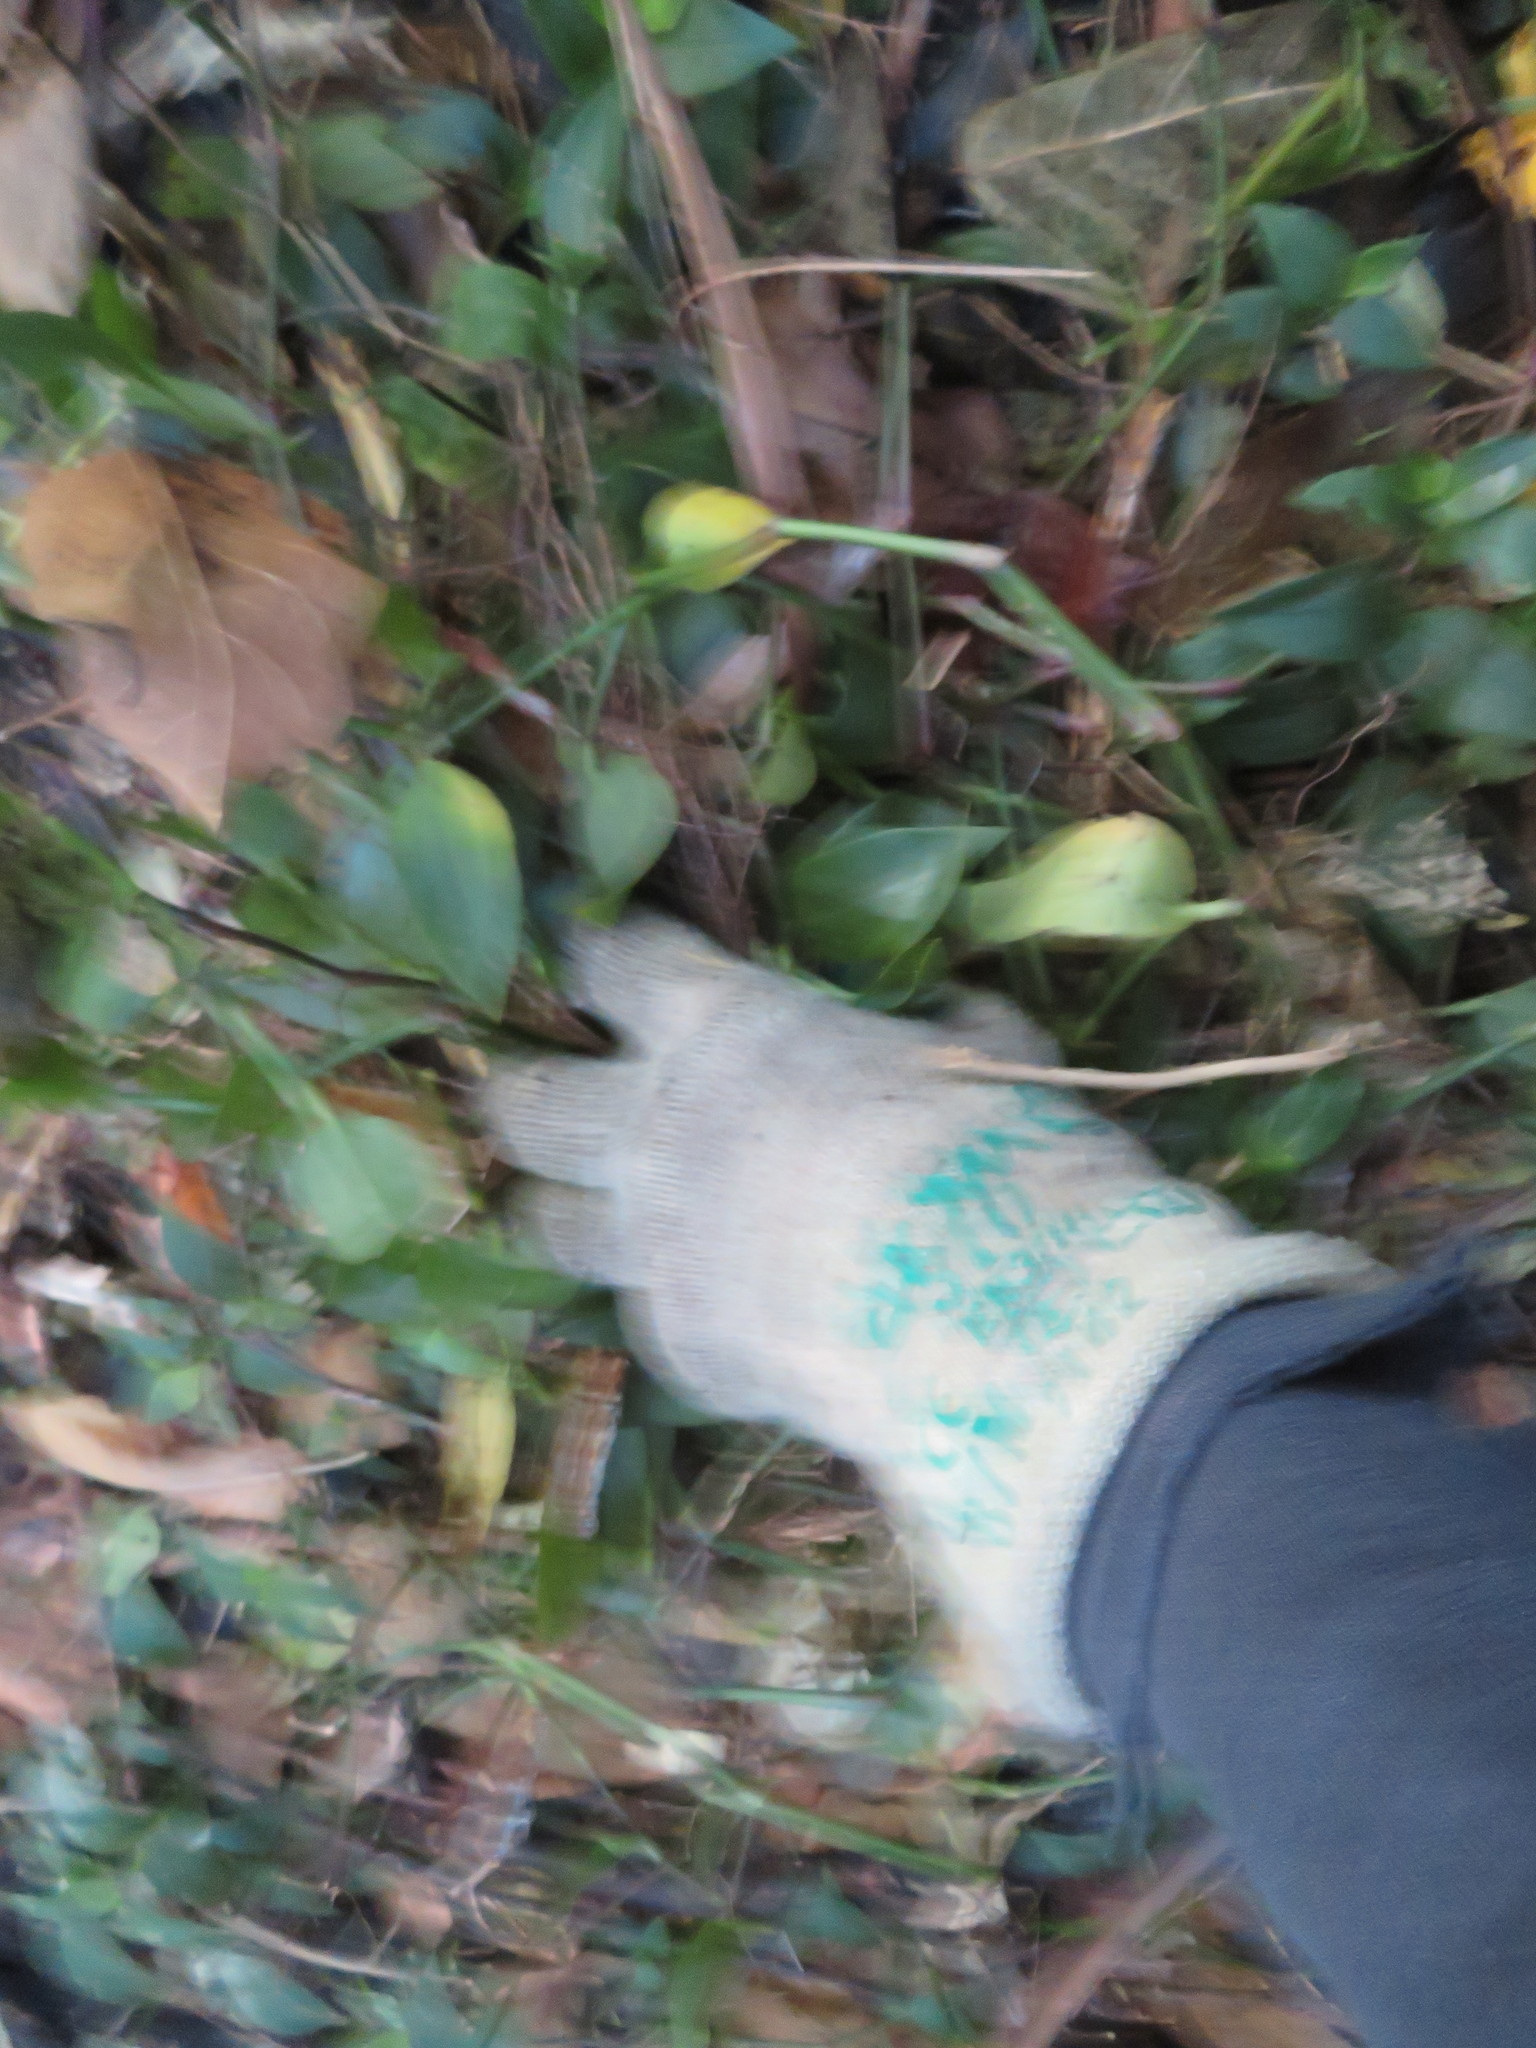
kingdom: Plantae
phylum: Tracheophyta
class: Magnoliopsida
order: Rosales
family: Elaeagnaceae
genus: Elaeagnus
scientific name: Elaeagnus reflexa
